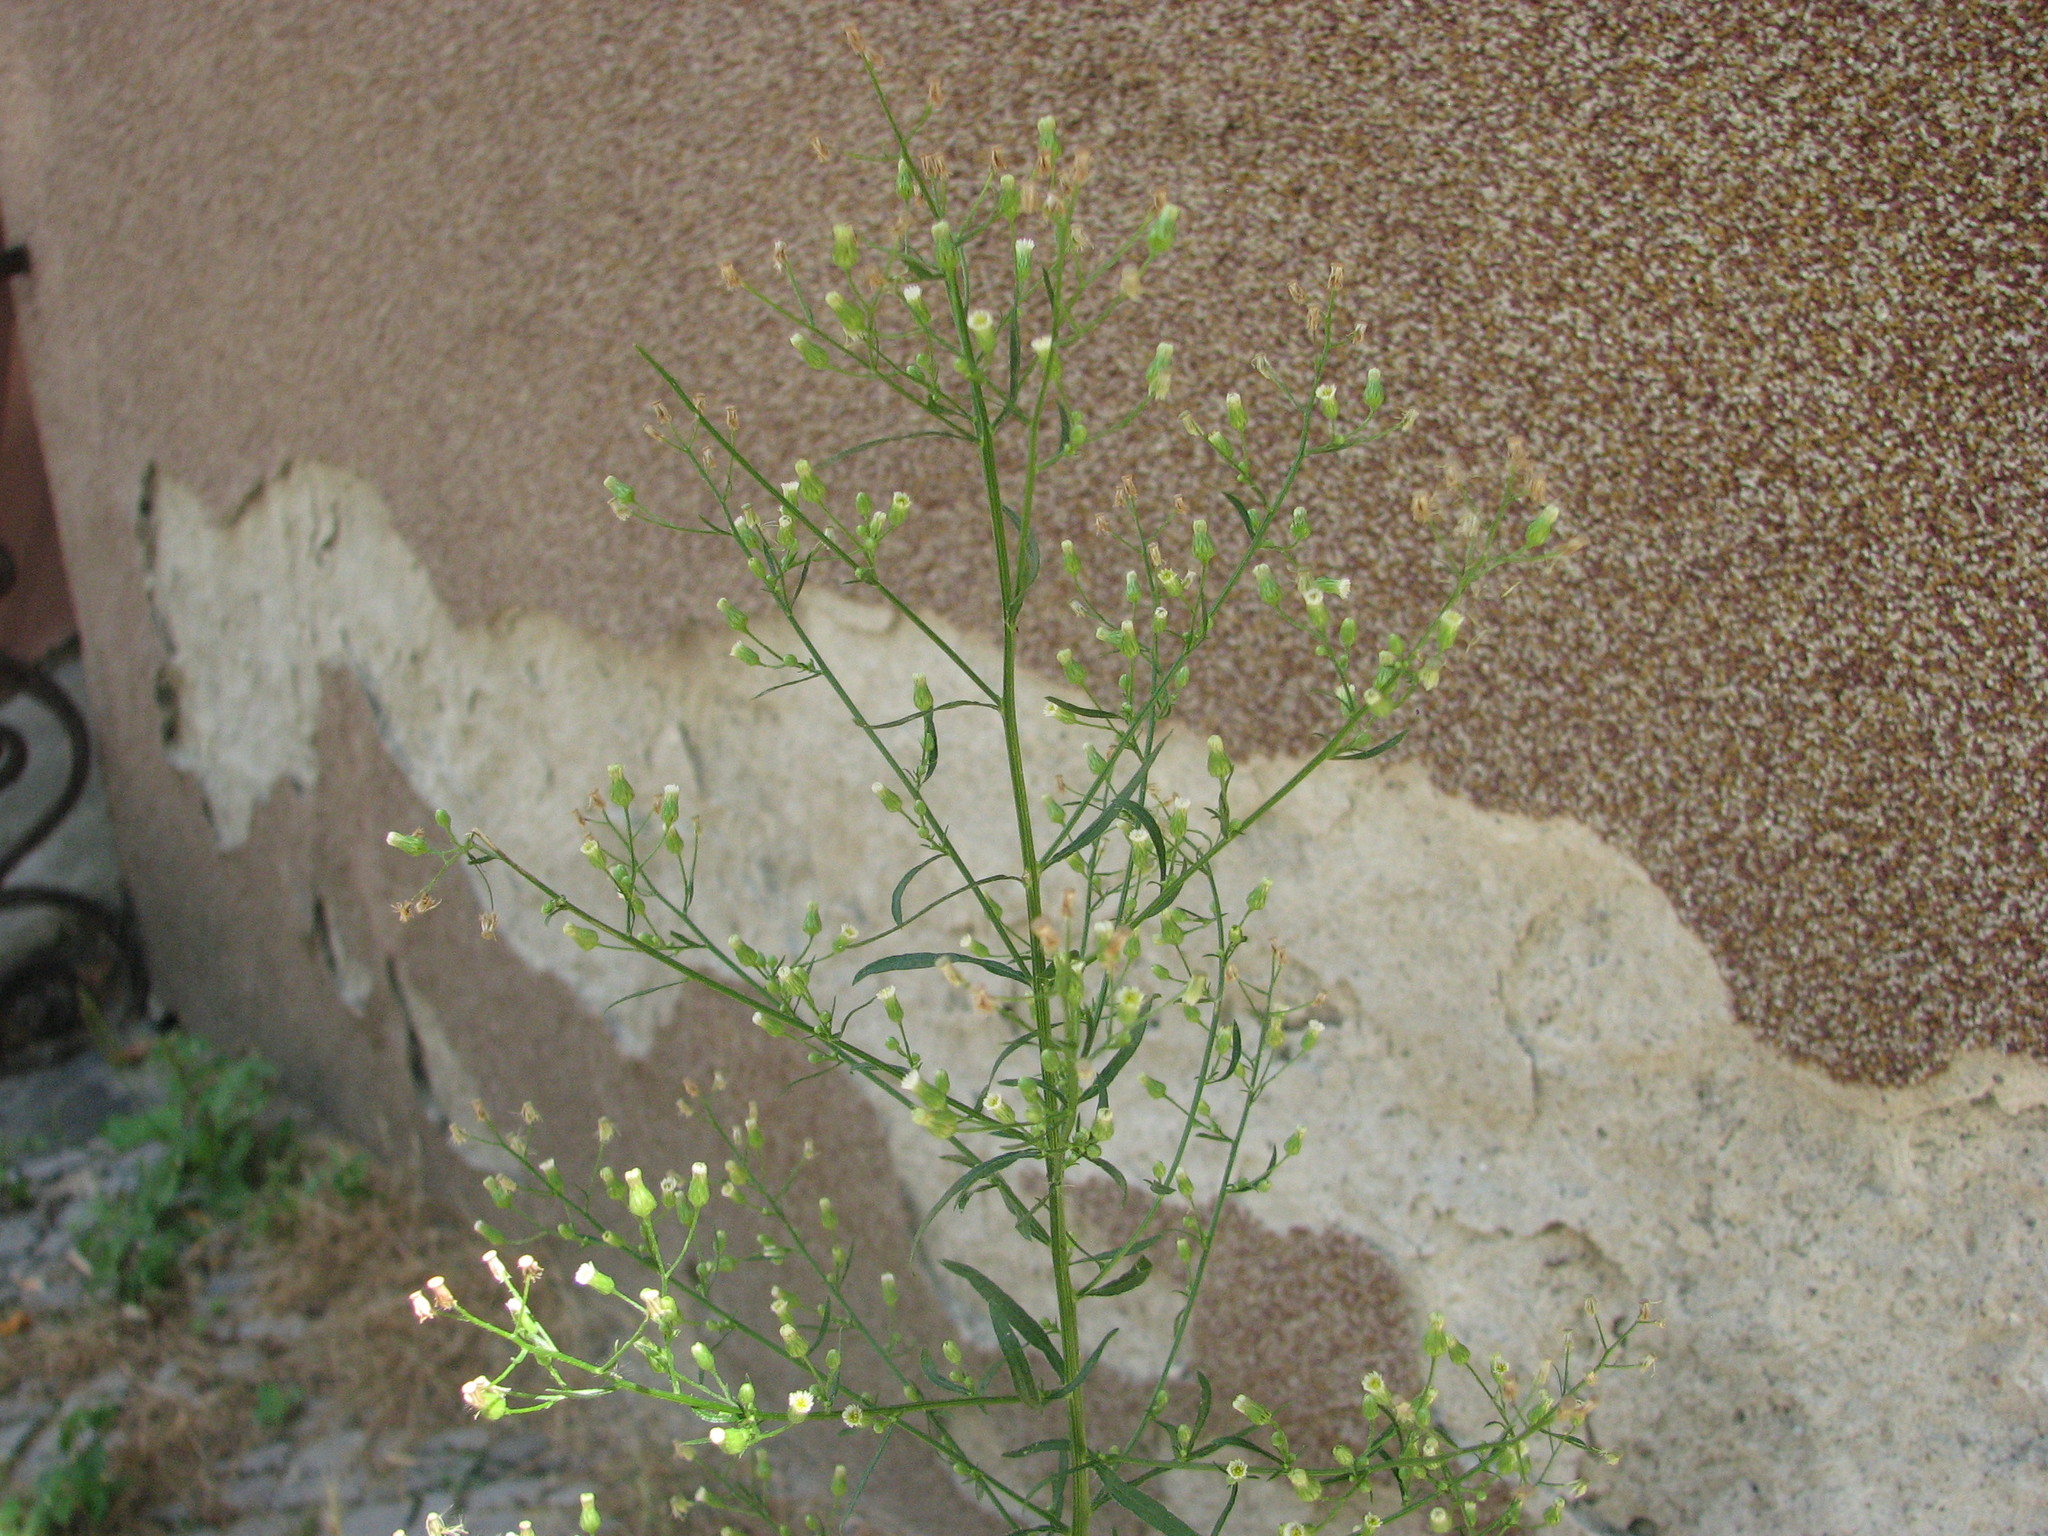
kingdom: Plantae
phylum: Tracheophyta
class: Magnoliopsida
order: Asterales
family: Asteraceae
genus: Erigeron
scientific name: Erigeron canadensis
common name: Canadian fleabane
